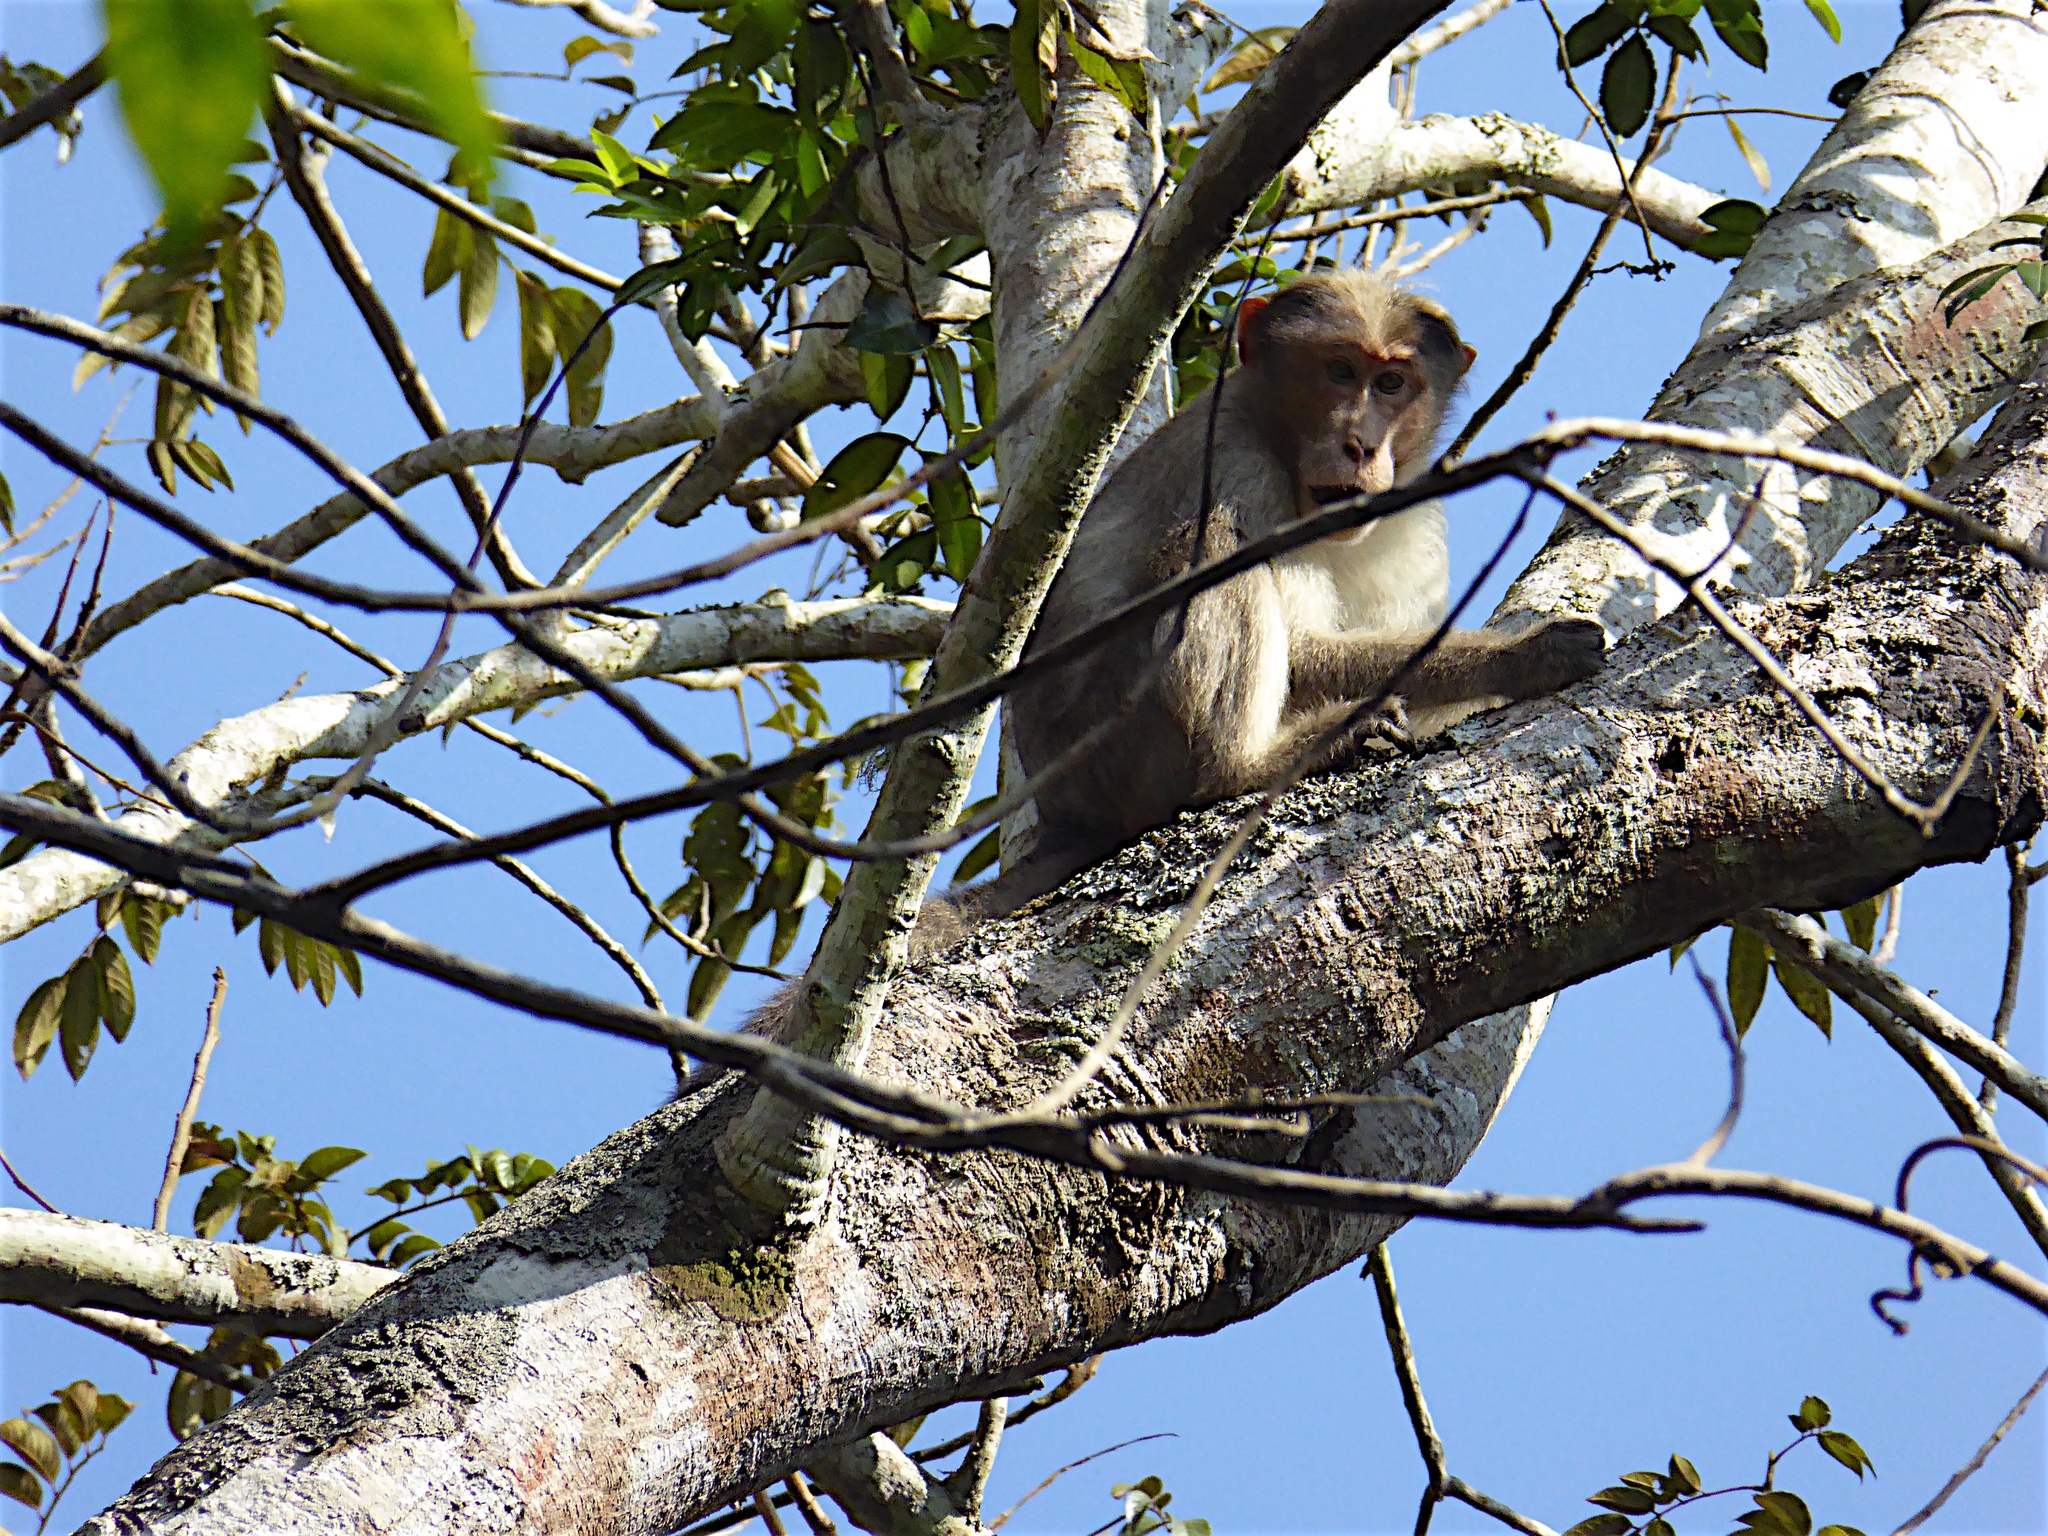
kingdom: Animalia
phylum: Chordata
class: Mammalia
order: Primates
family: Cercopithecidae
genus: Macaca
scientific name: Macaca radiata
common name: Bonnet macaque
